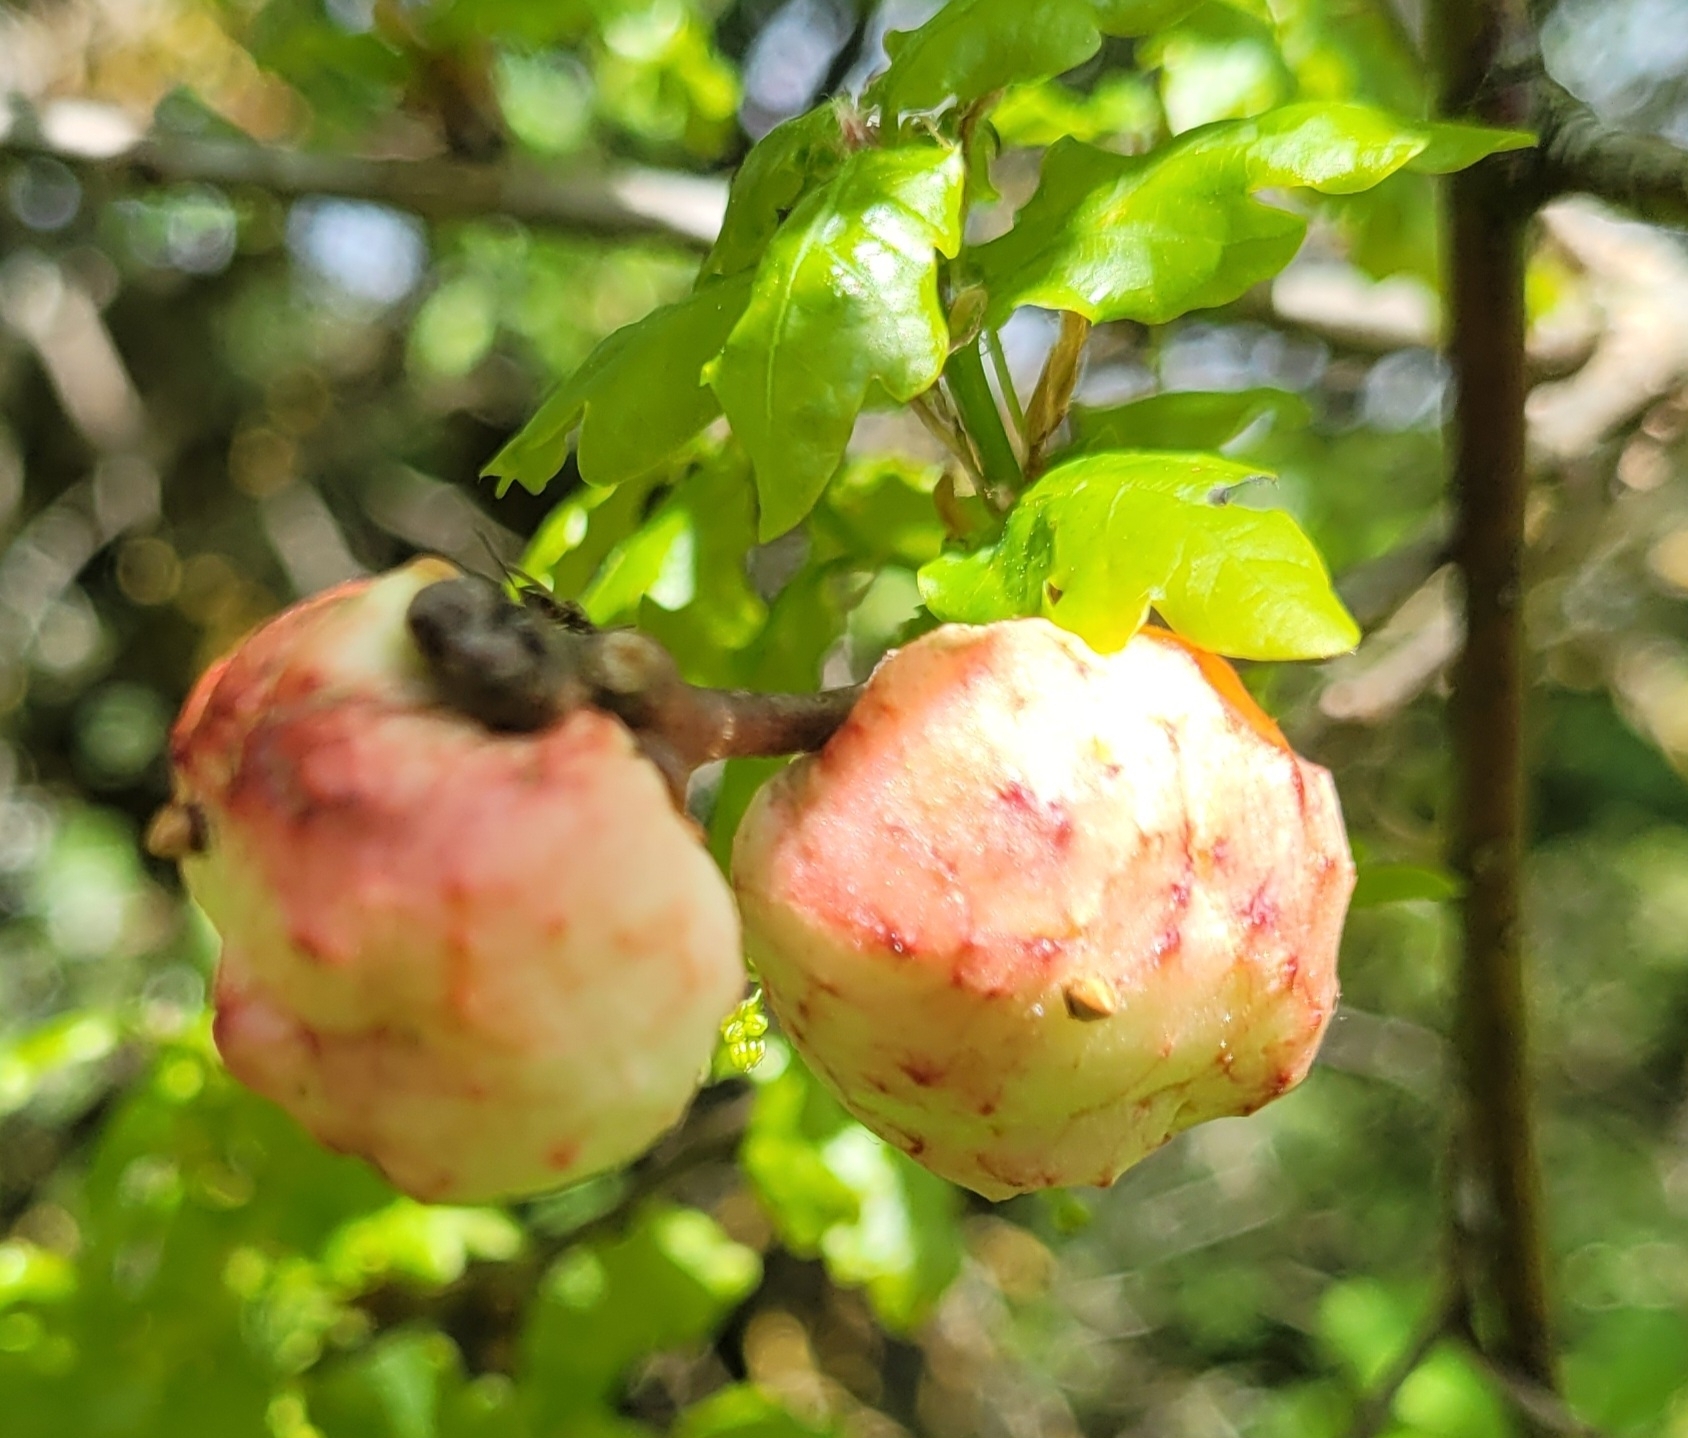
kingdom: Animalia
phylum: Arthropoda
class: Insecta
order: Hymenoptera
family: Cynipidae
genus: Biorhiza
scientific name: Biorhiza pallida
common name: Oak apple
